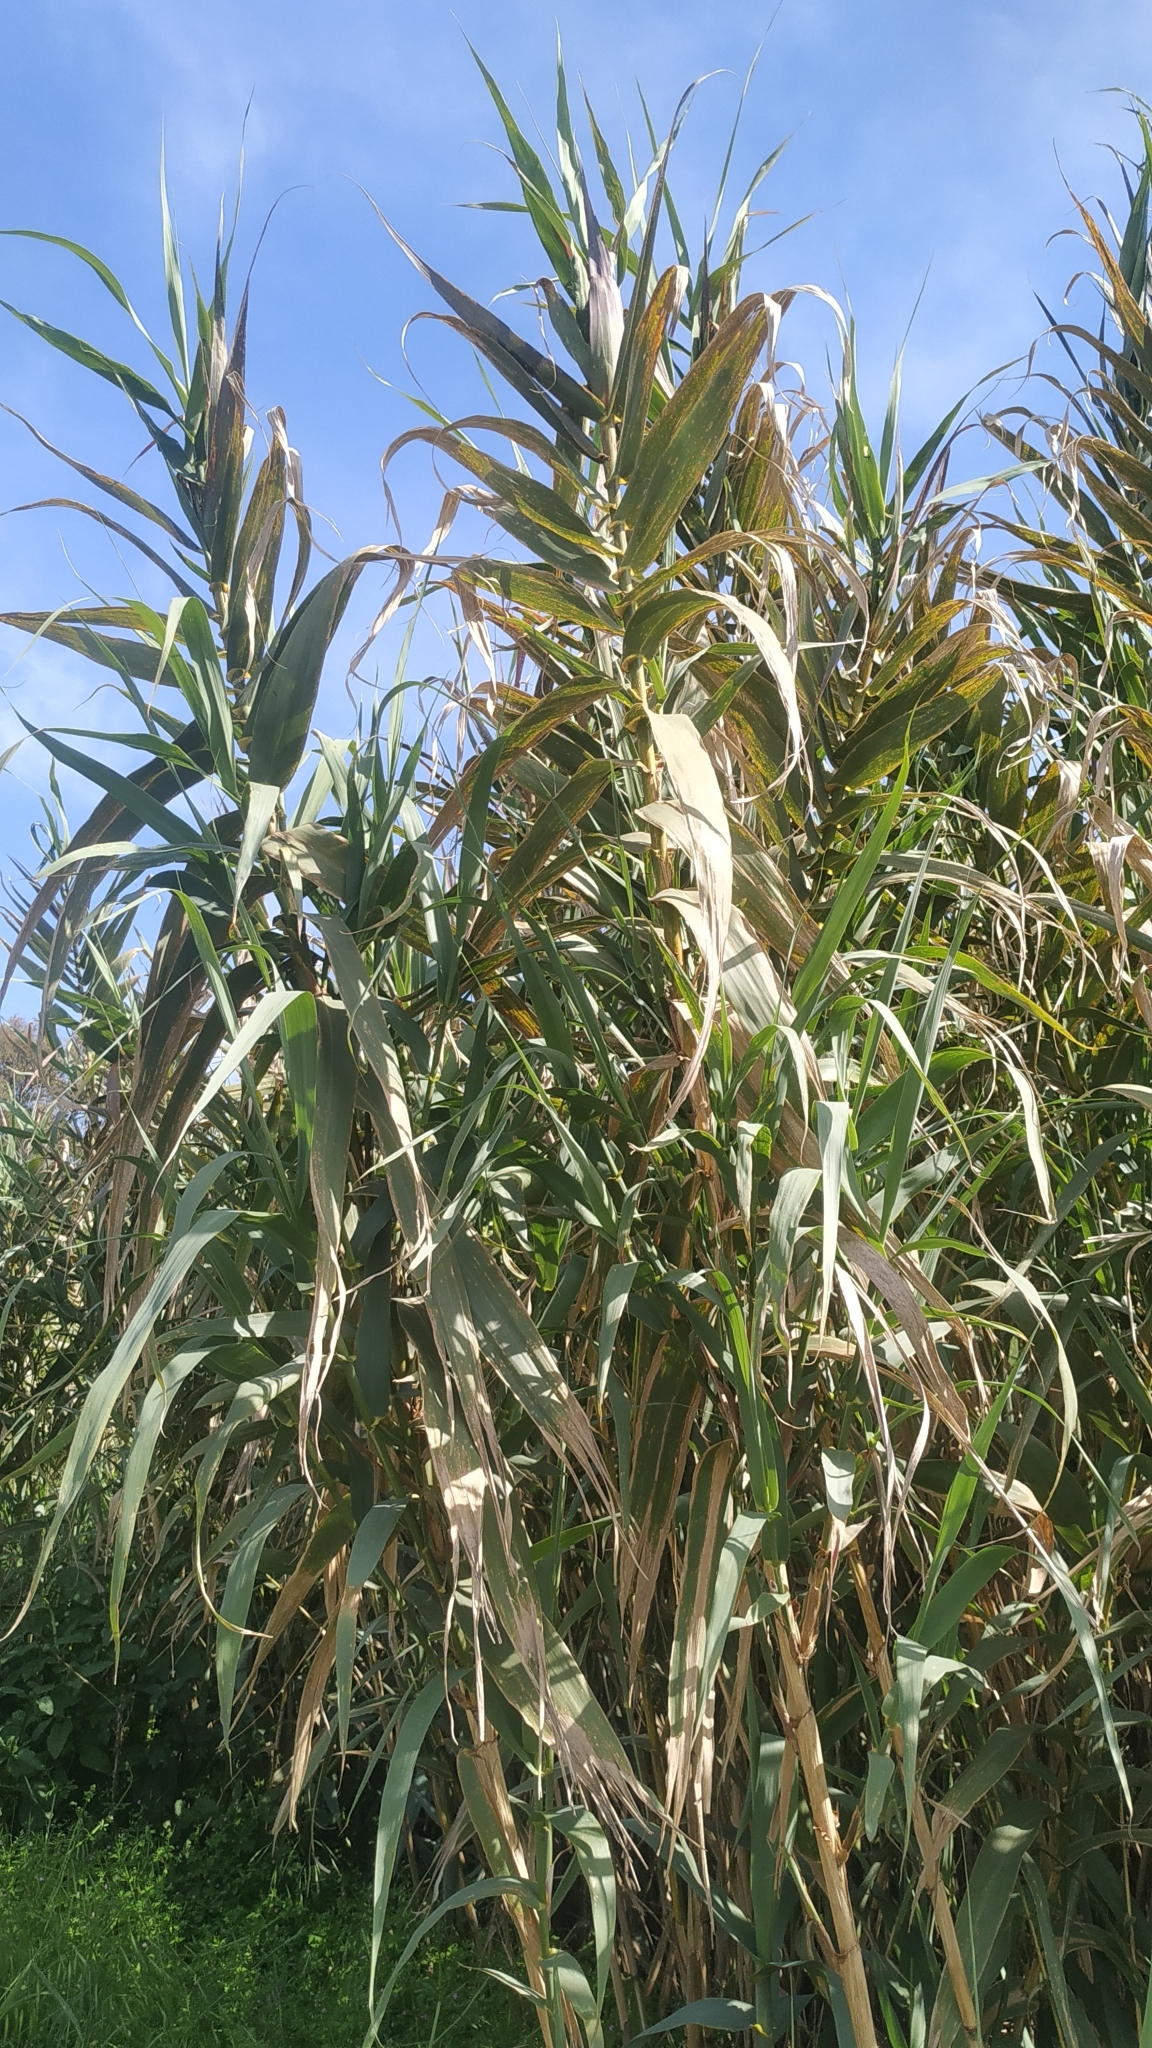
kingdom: Plantae
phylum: Tracheophyta
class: Liliopsida
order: Poales
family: Poaceae
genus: Arundo
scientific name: Arundo donax
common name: Giant reed
